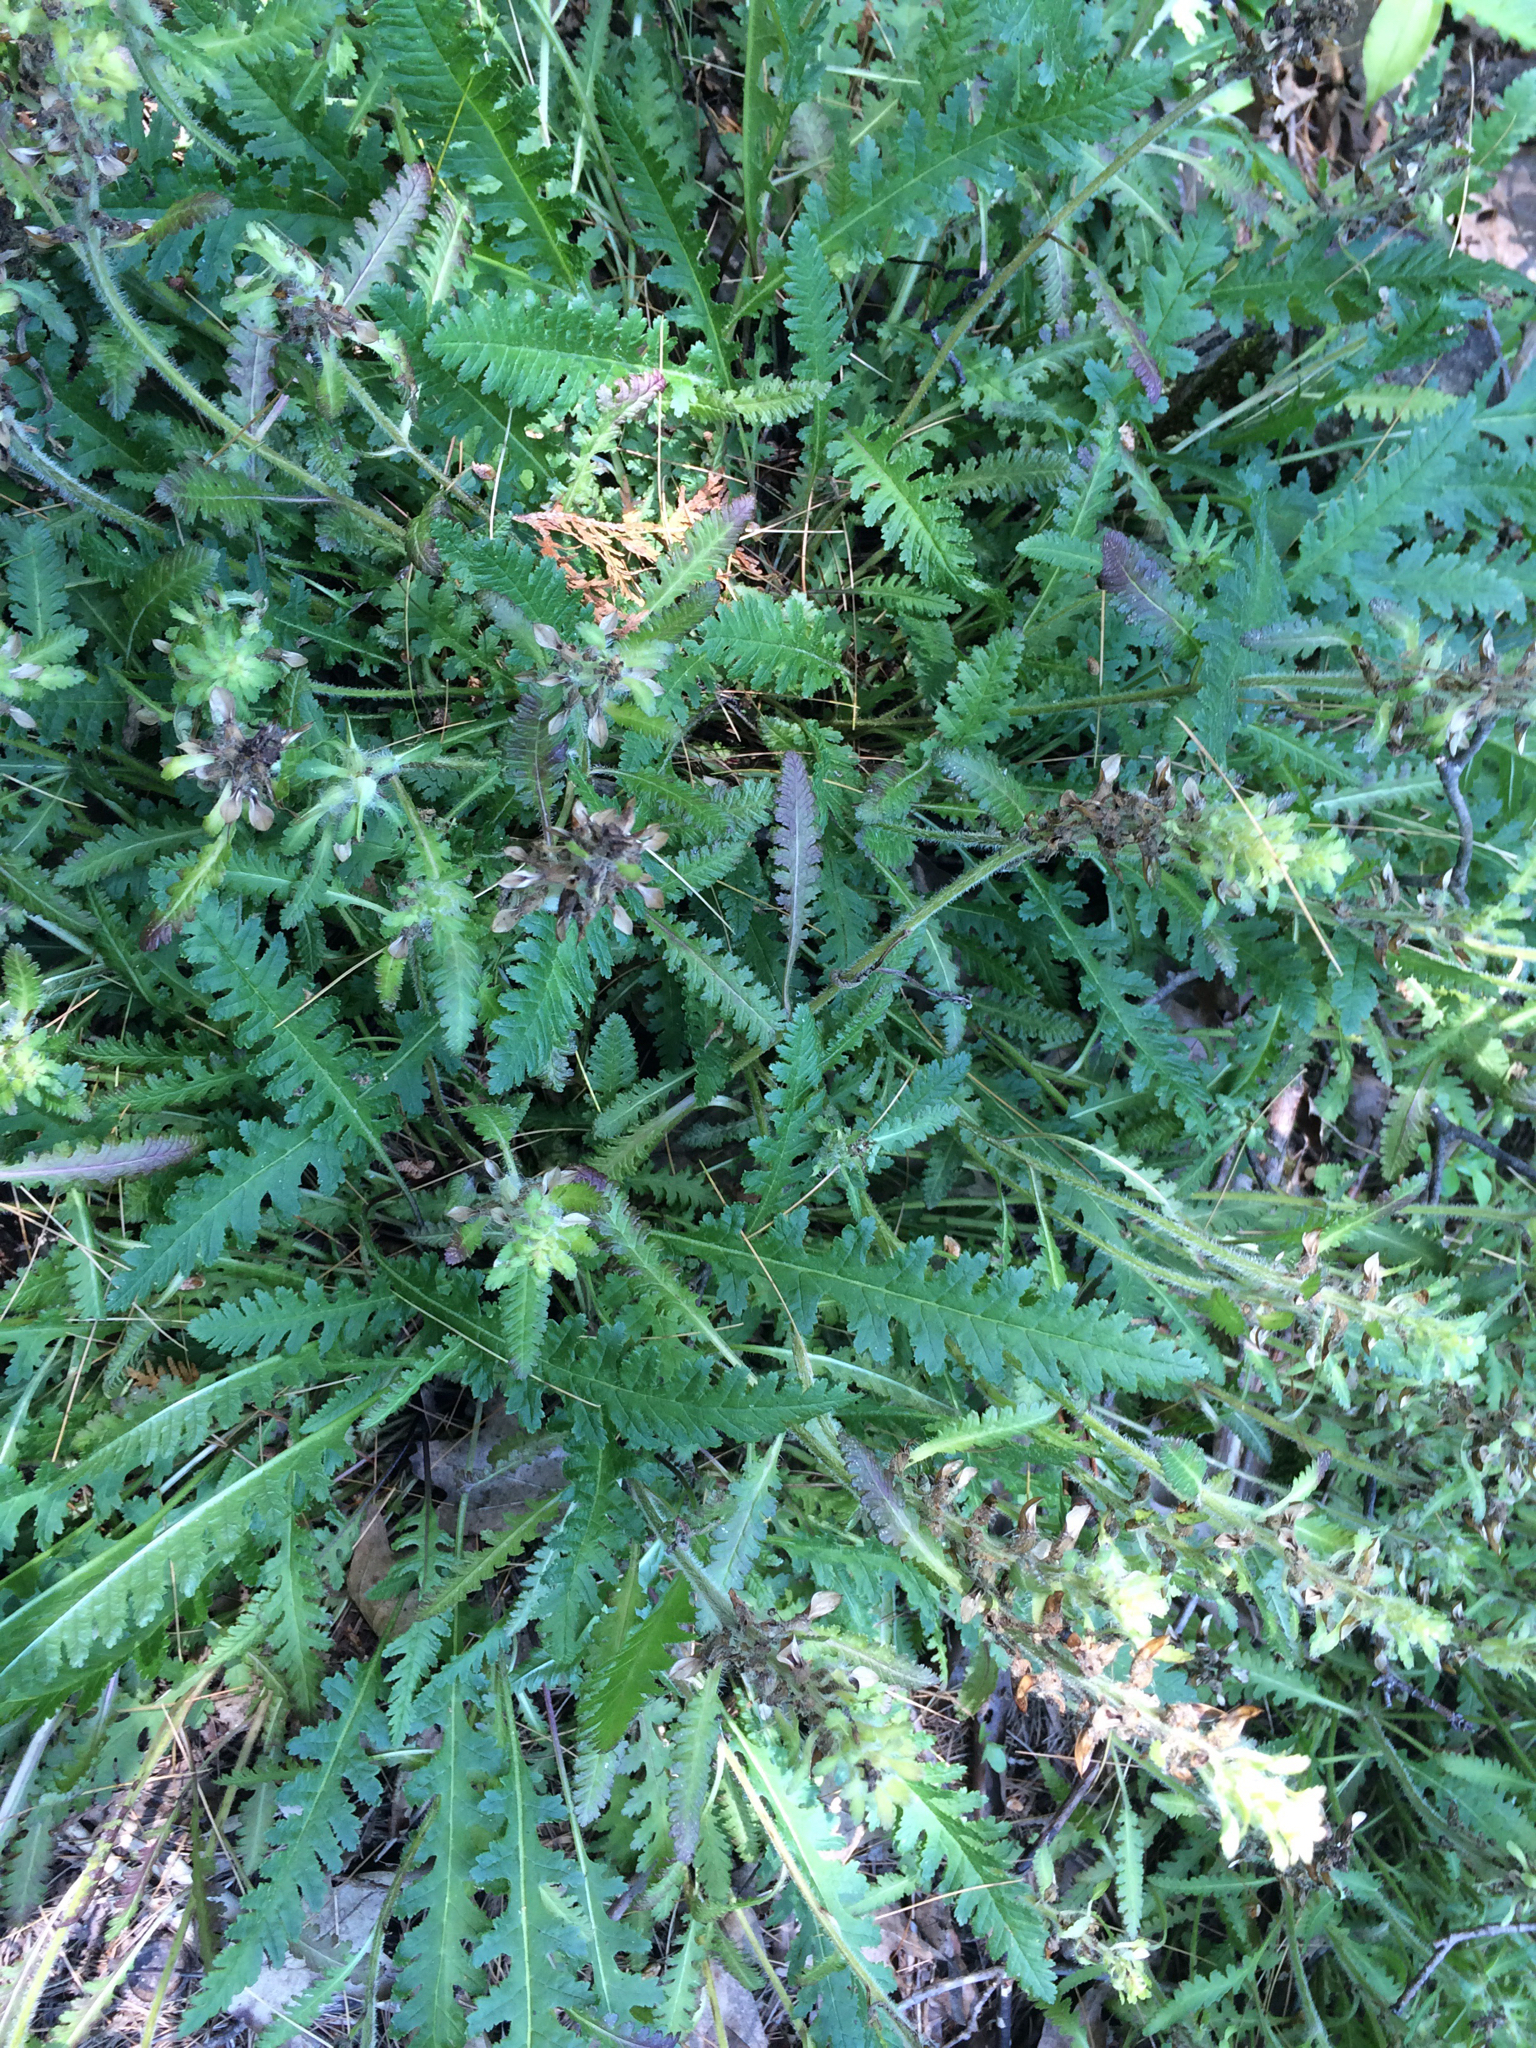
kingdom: Plantae
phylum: Tracheophyta
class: Magnoliopsida
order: Lamiales
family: Orobanchaceae
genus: Pedicularis
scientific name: Pedicularis canadensis
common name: Early lousewort
